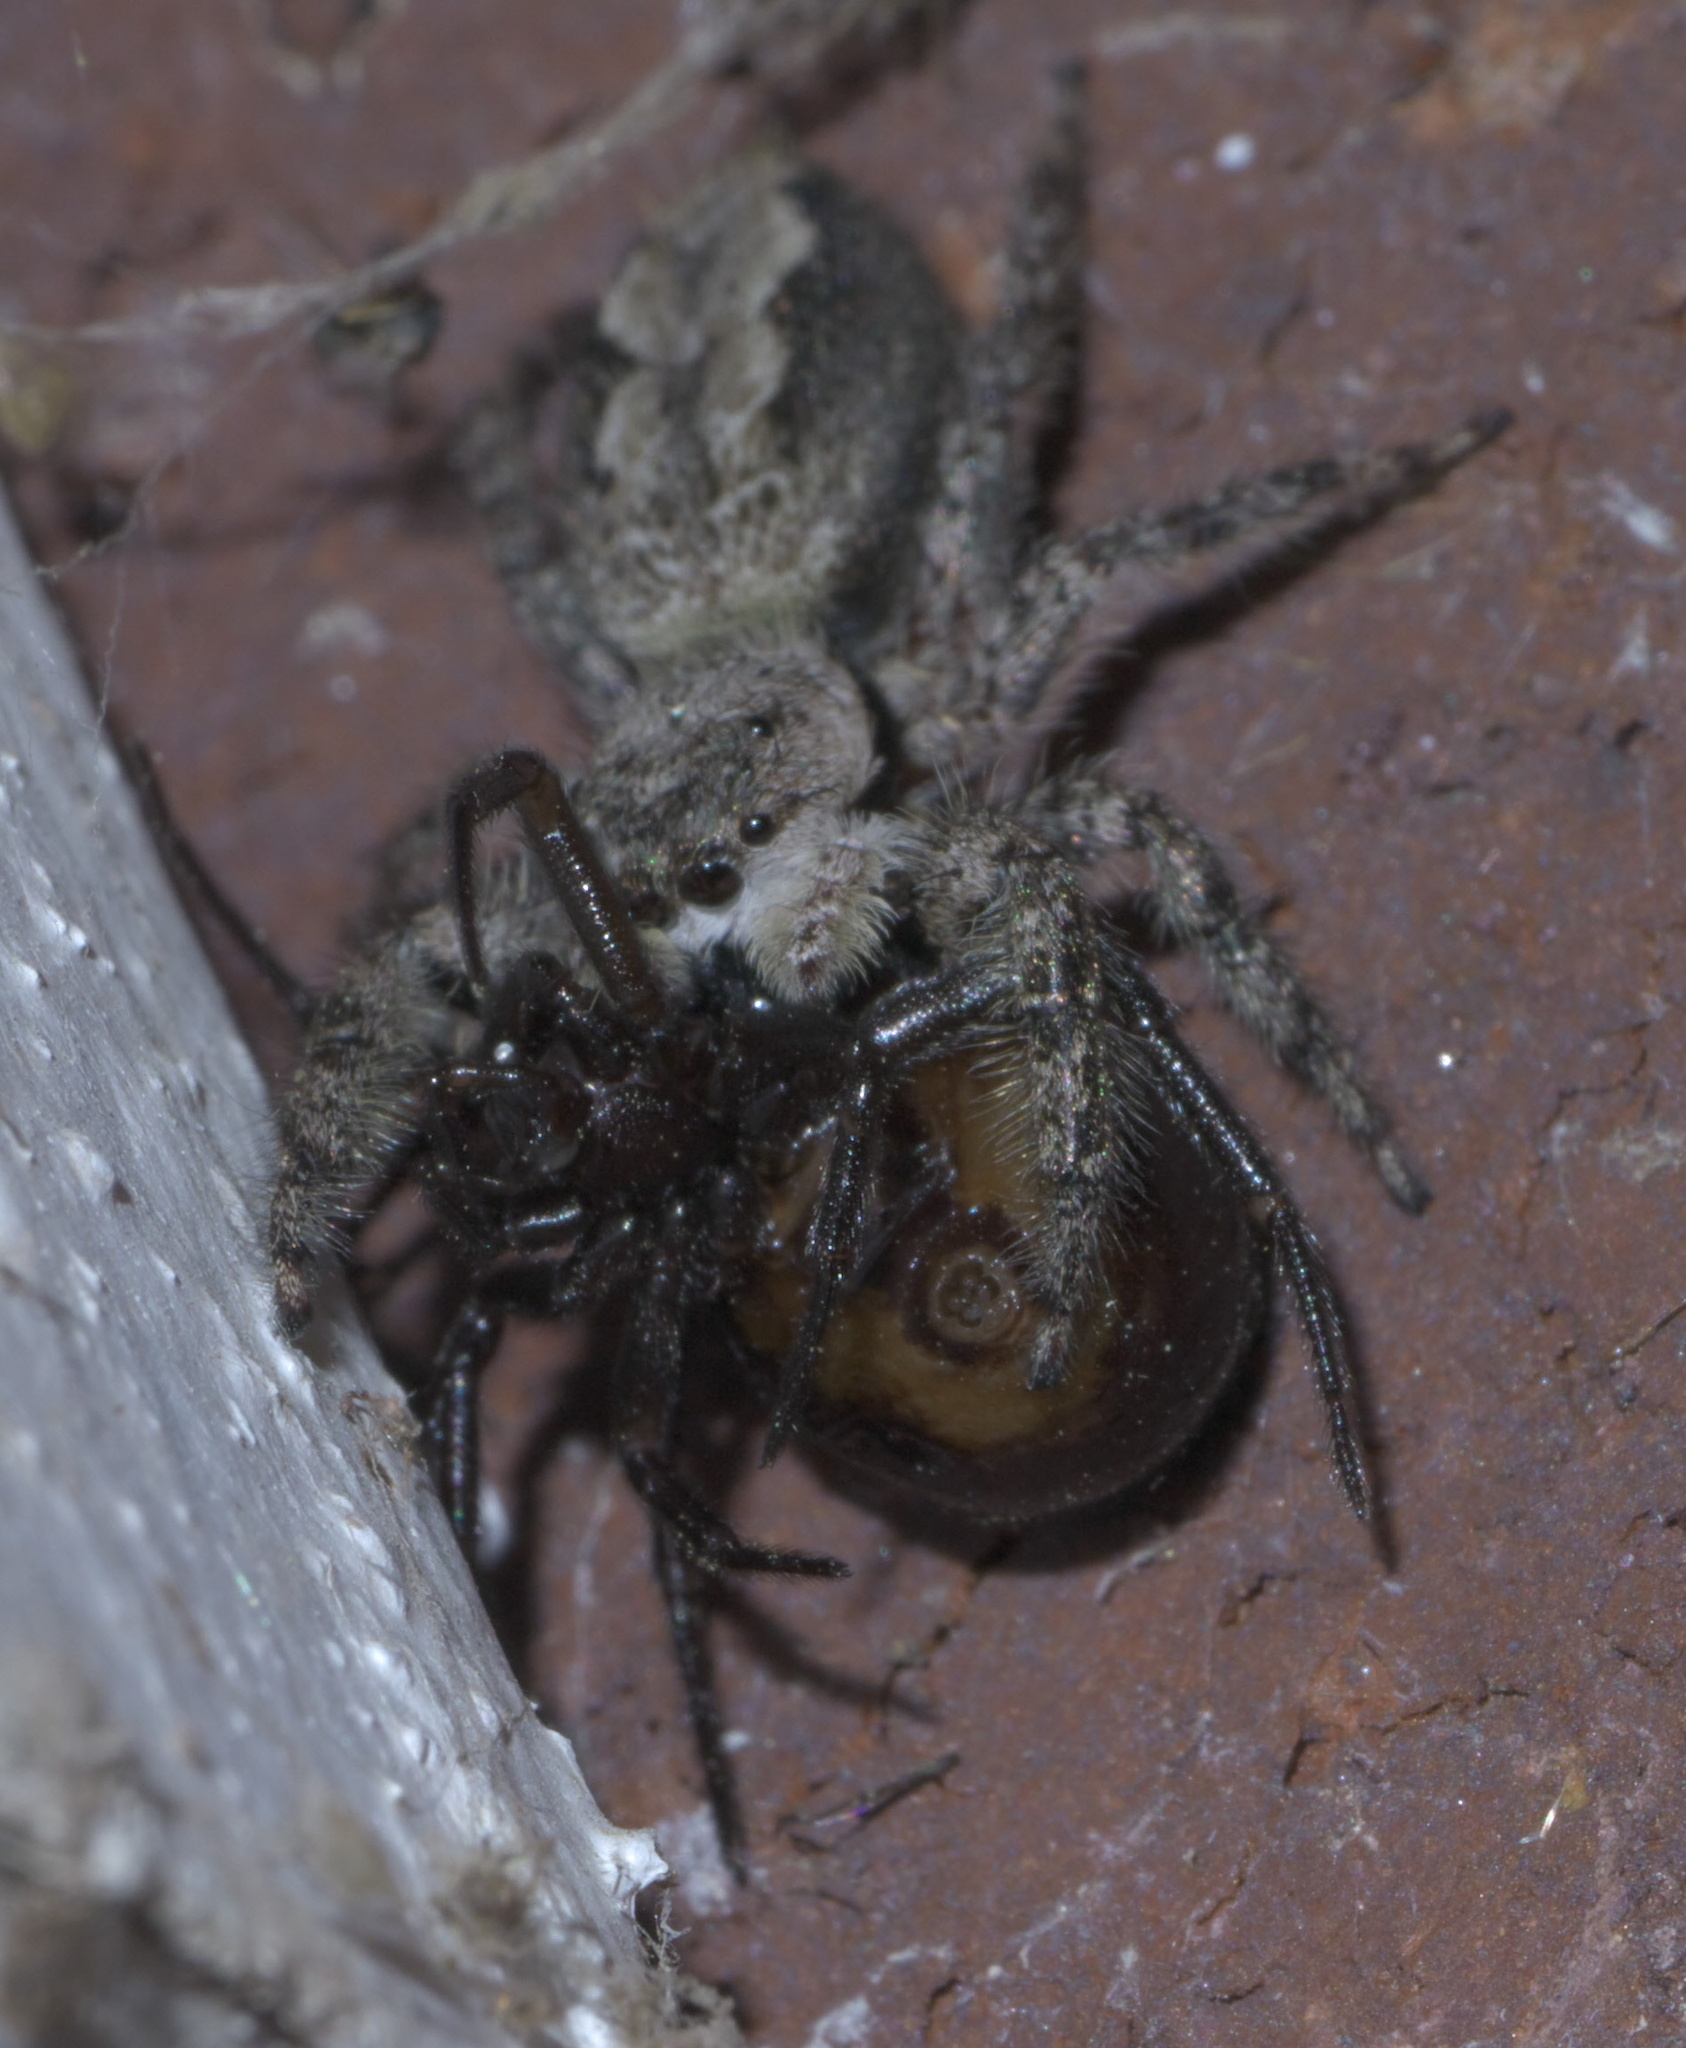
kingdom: Animalia
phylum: Arthropoda
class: Arachnida
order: Araneae
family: Salticidae
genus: Platycryptus
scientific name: Platycryptus undatus
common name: Tan jumping spider
